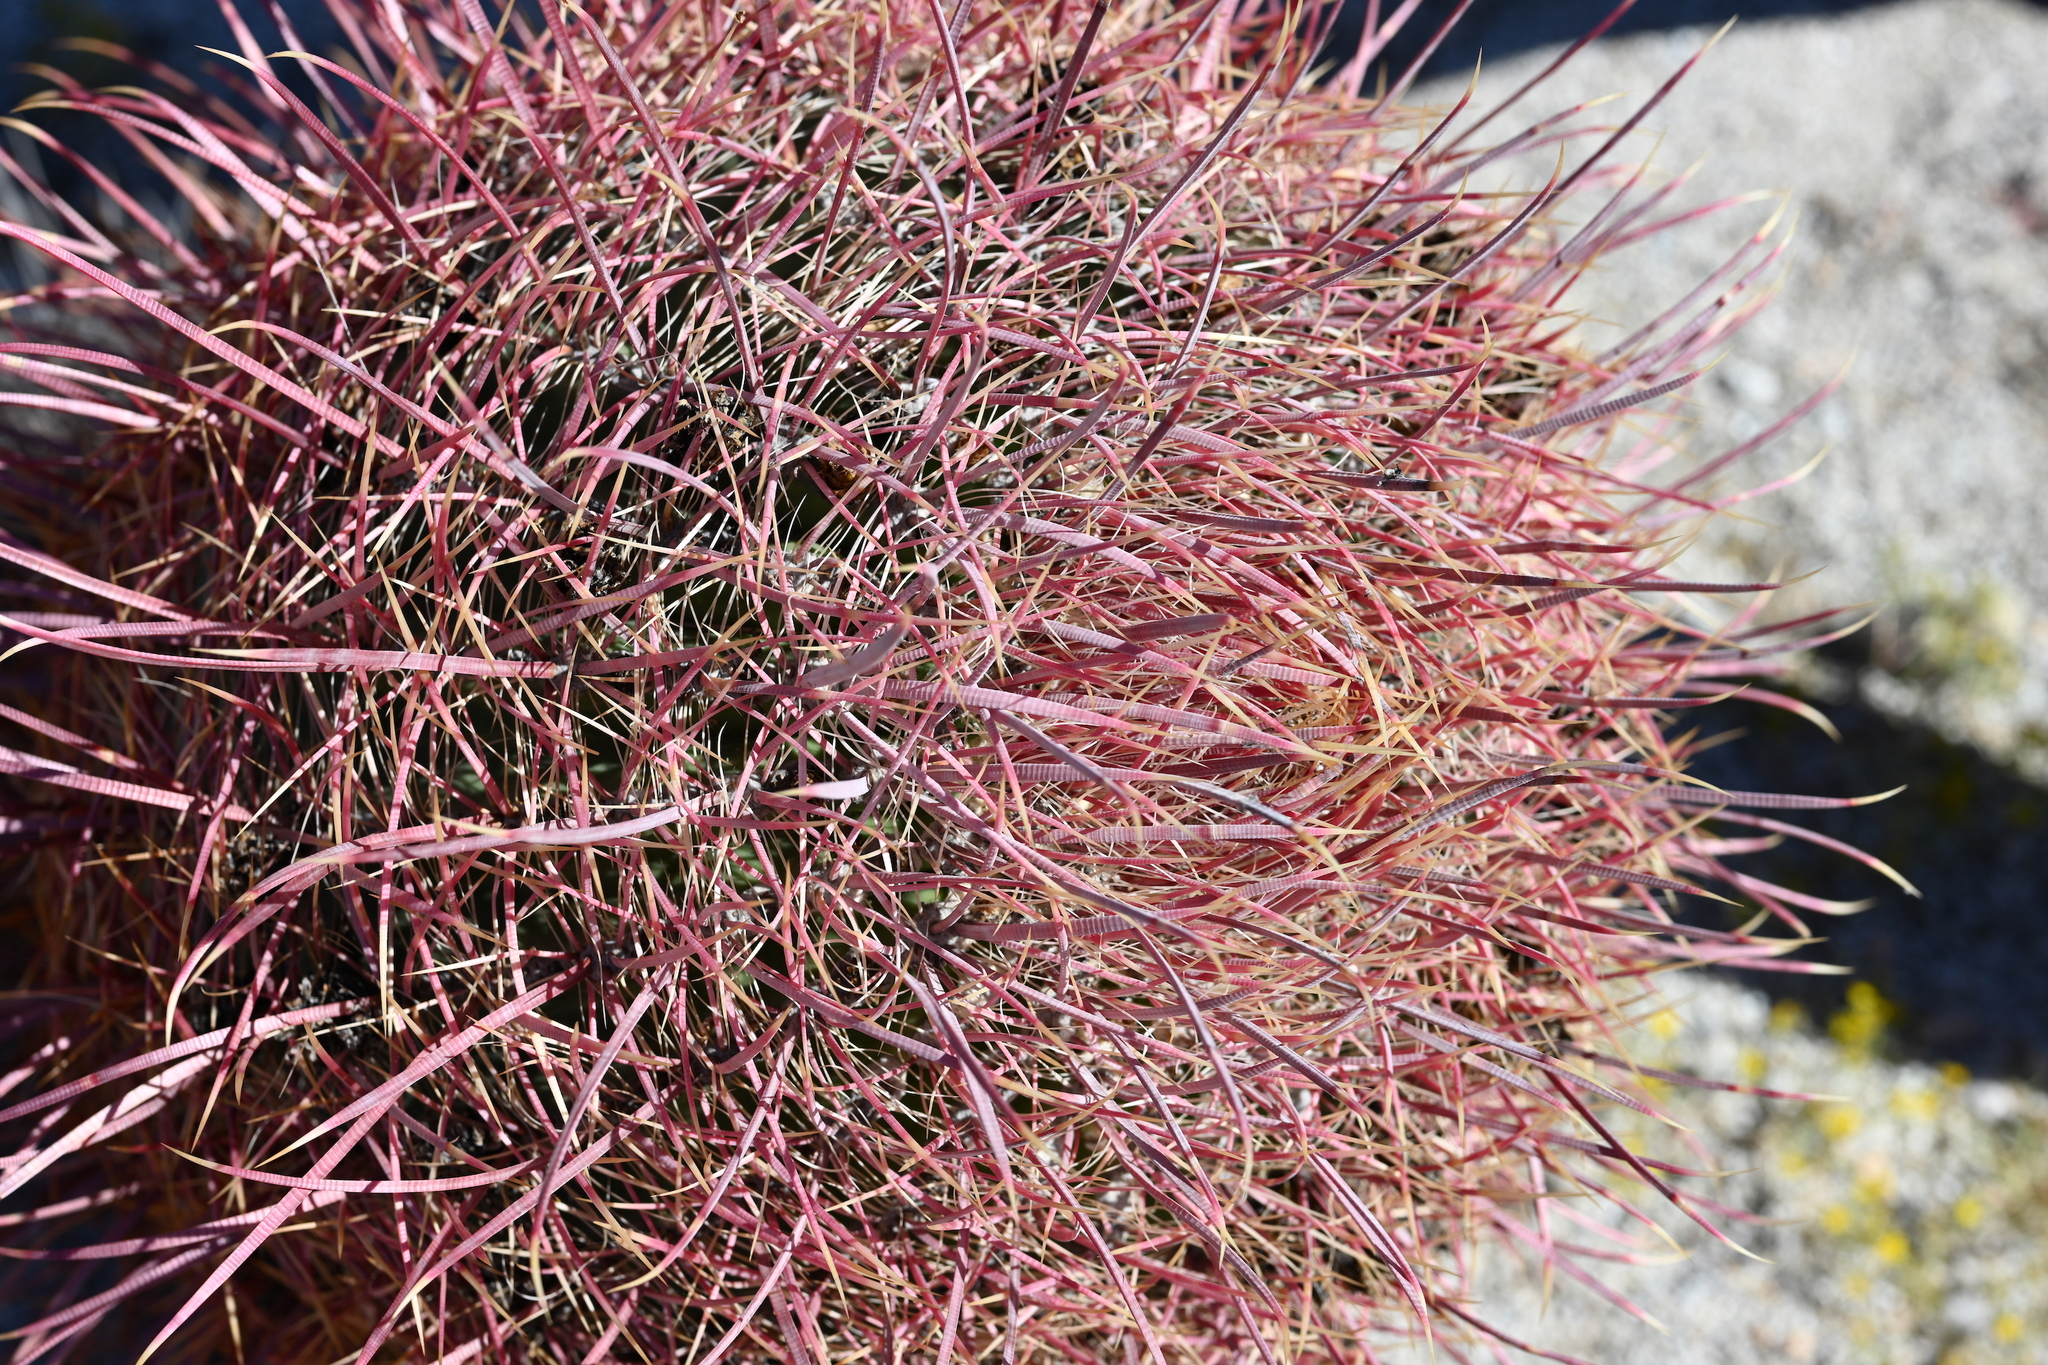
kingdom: Plantae
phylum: Tracheophyta
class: Magnoliopsida
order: Caryophyllales
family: Cactaceae
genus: Ferocactus
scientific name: Ferocactus cylindraceus
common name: California barrel cactus
